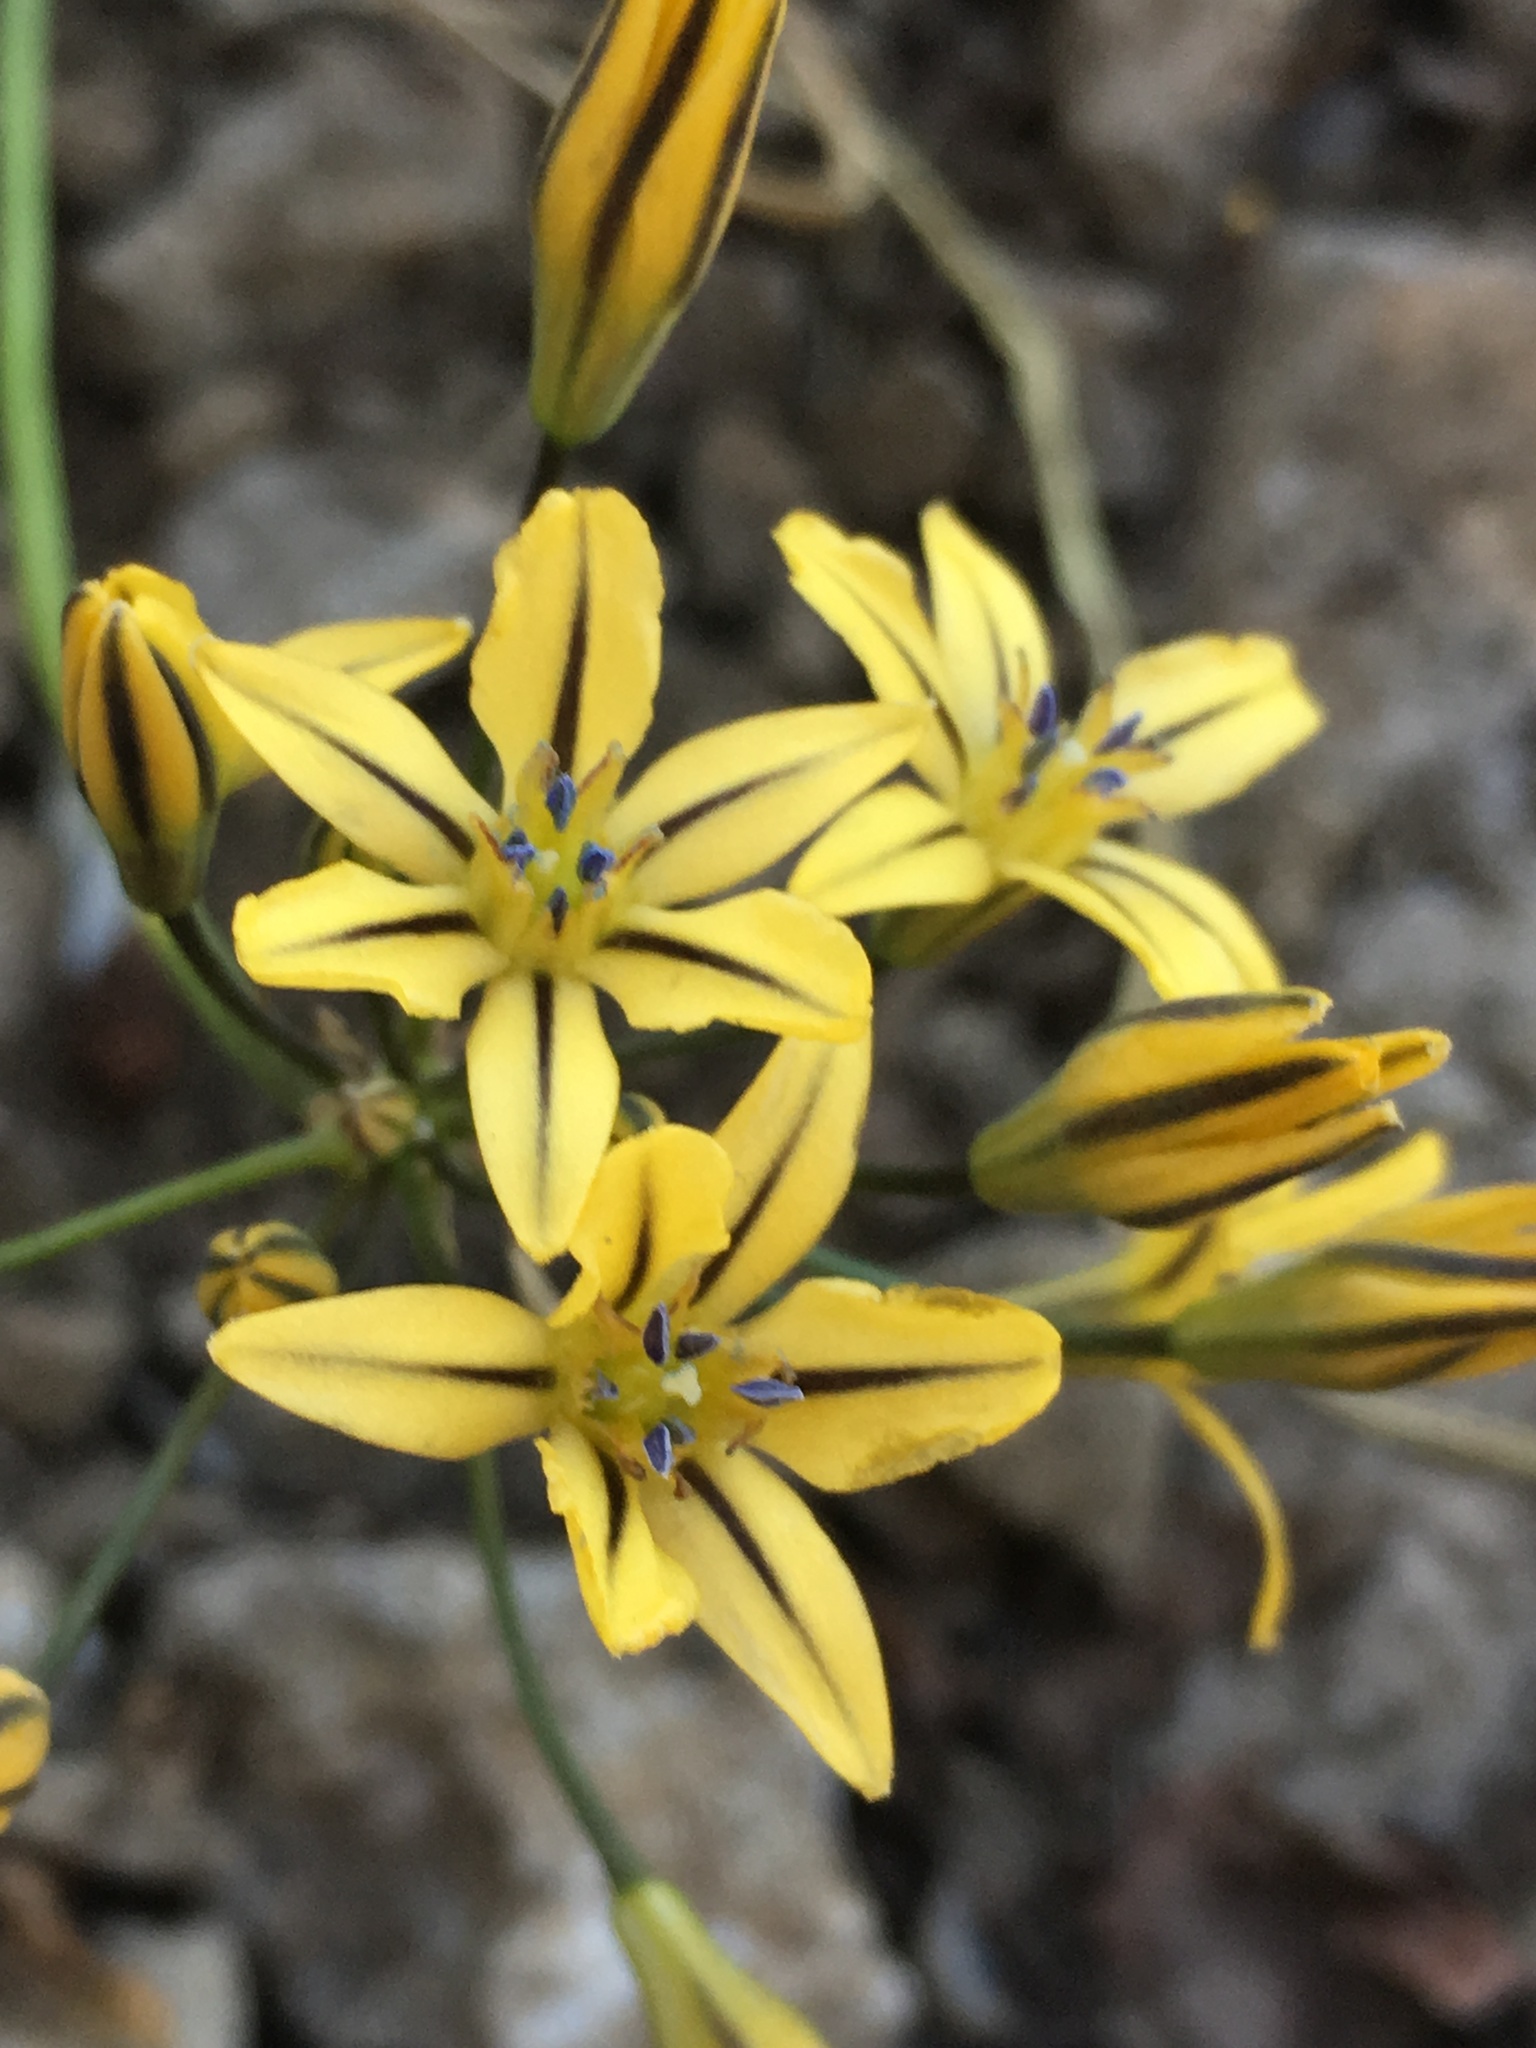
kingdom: Plantae
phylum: Tracheophyta
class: Liliopsida
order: Asparagales
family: Asparagaceae
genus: Triteleia
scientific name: Triteleia ixioides
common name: Yellow-brodiaea
